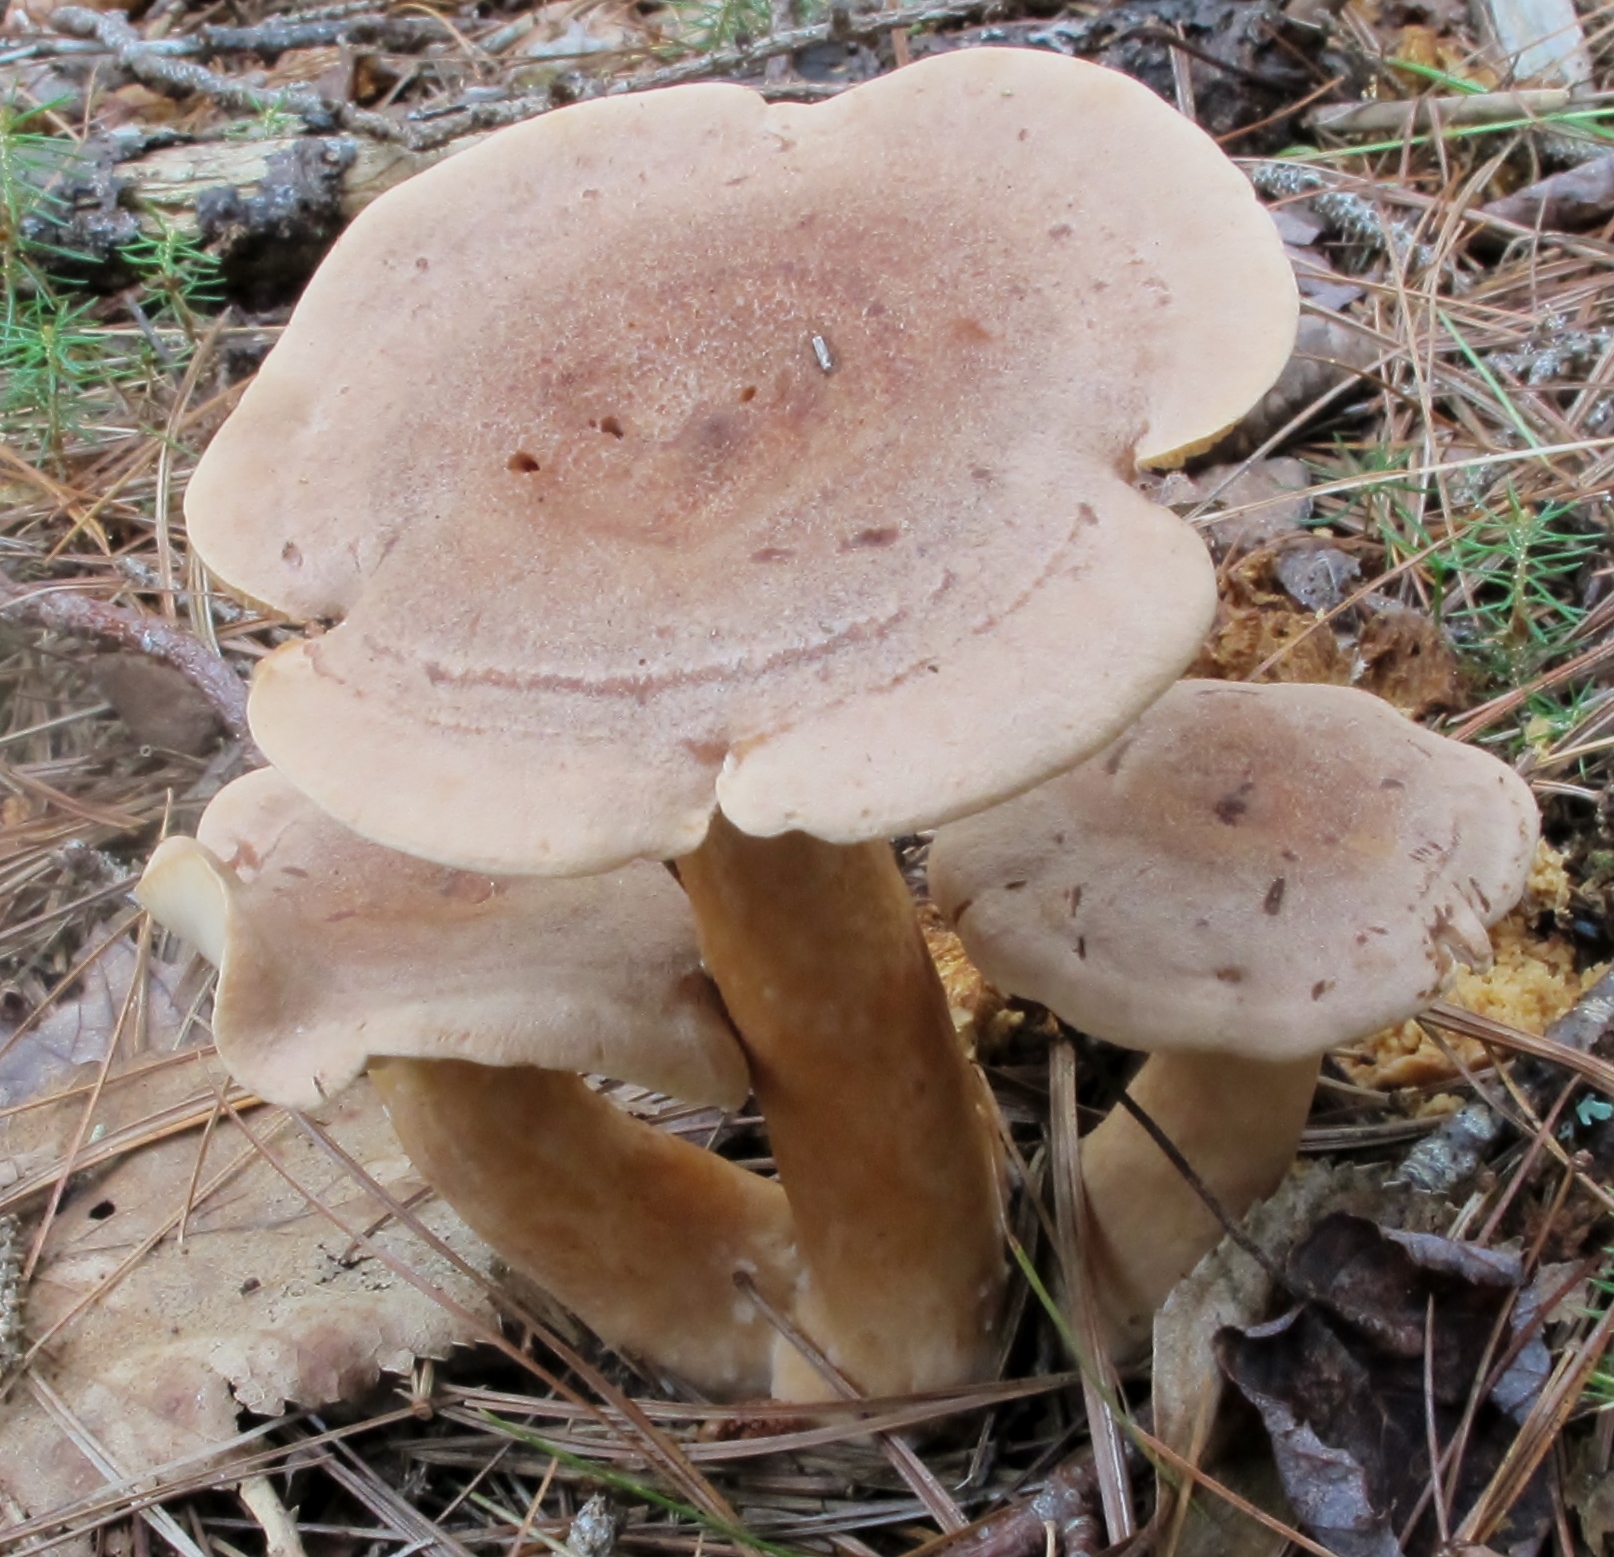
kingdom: Fungi
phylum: Basidiomycota
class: Agaricomycetes
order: Russulales
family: Russulaceae
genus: Lactarius
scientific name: Lactarius helvus
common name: Fenugreek milkcap
